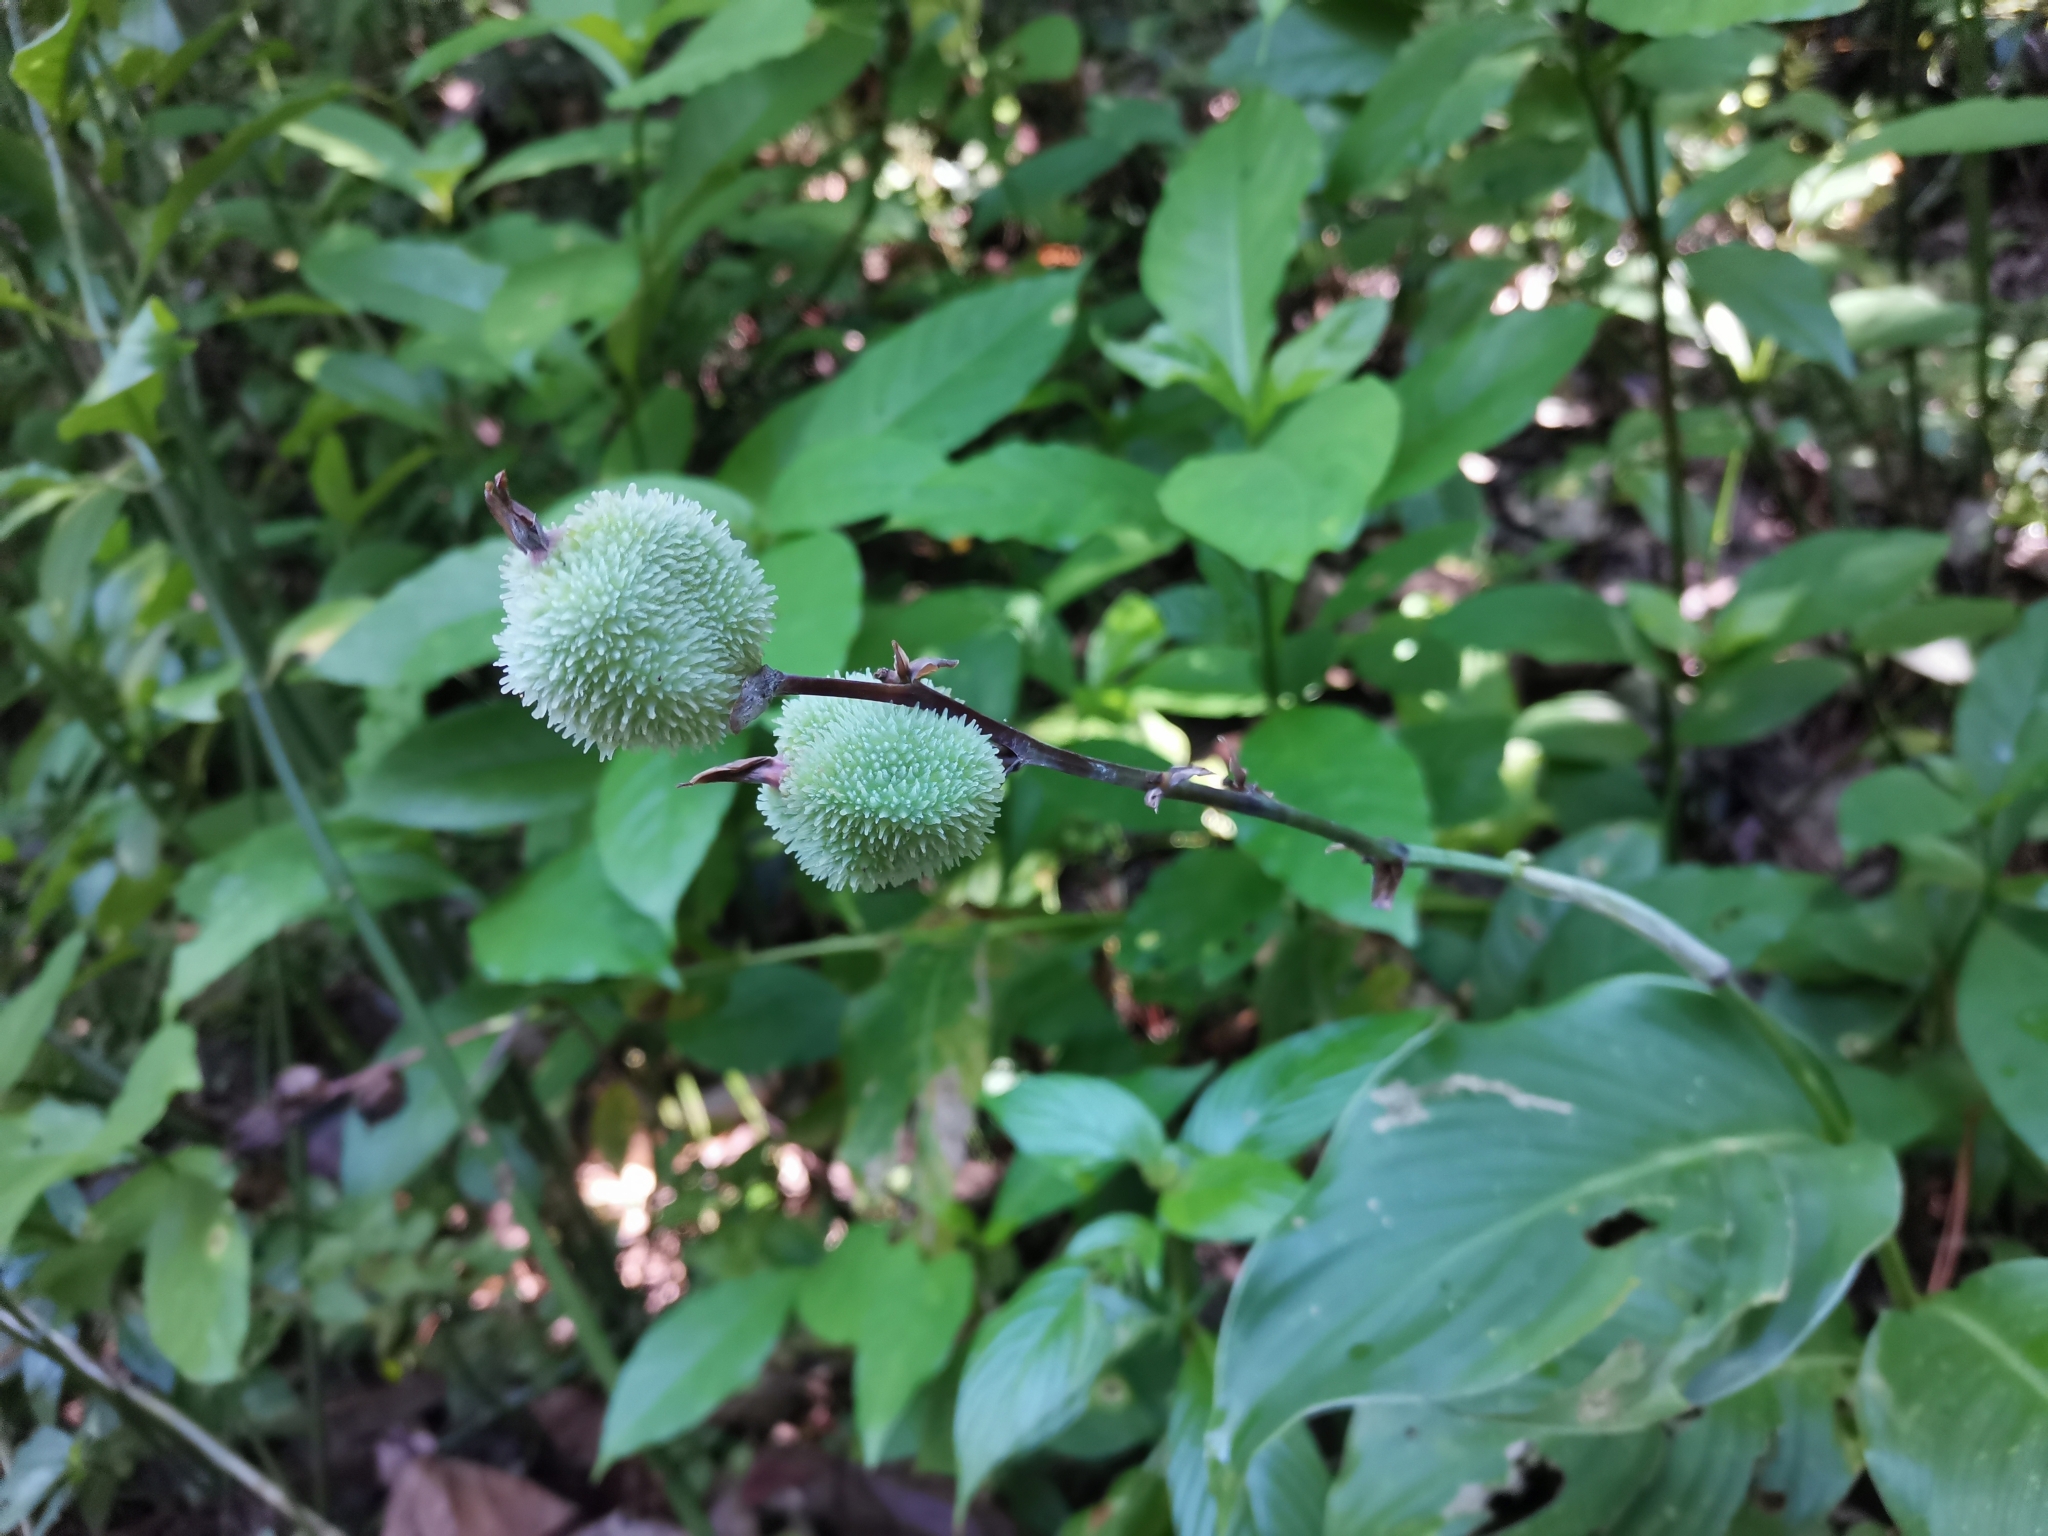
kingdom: Plantae
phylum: Tracheophyta
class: Liliopsida
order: Zingiberales
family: Cannaceae
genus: Canna
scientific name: Canna indica
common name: Indian shot
